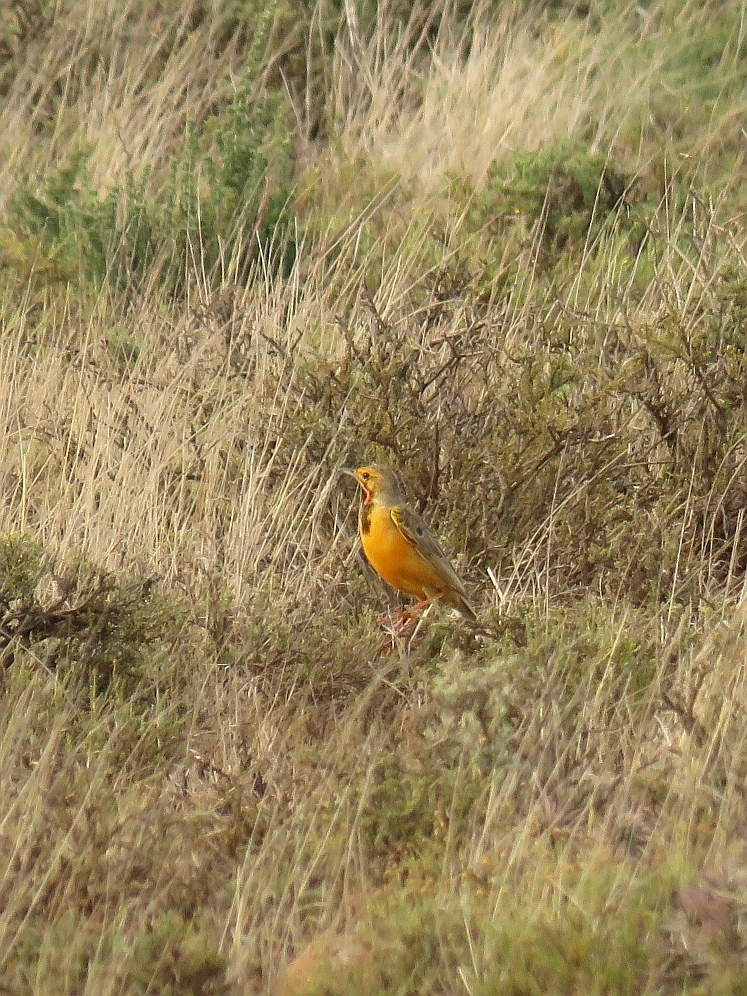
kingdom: Animalia
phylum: Chordata
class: Aves
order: Passeriformes
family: Motacillidae
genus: Macronyx
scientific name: Macronyx capensis
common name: Cape longclaw
